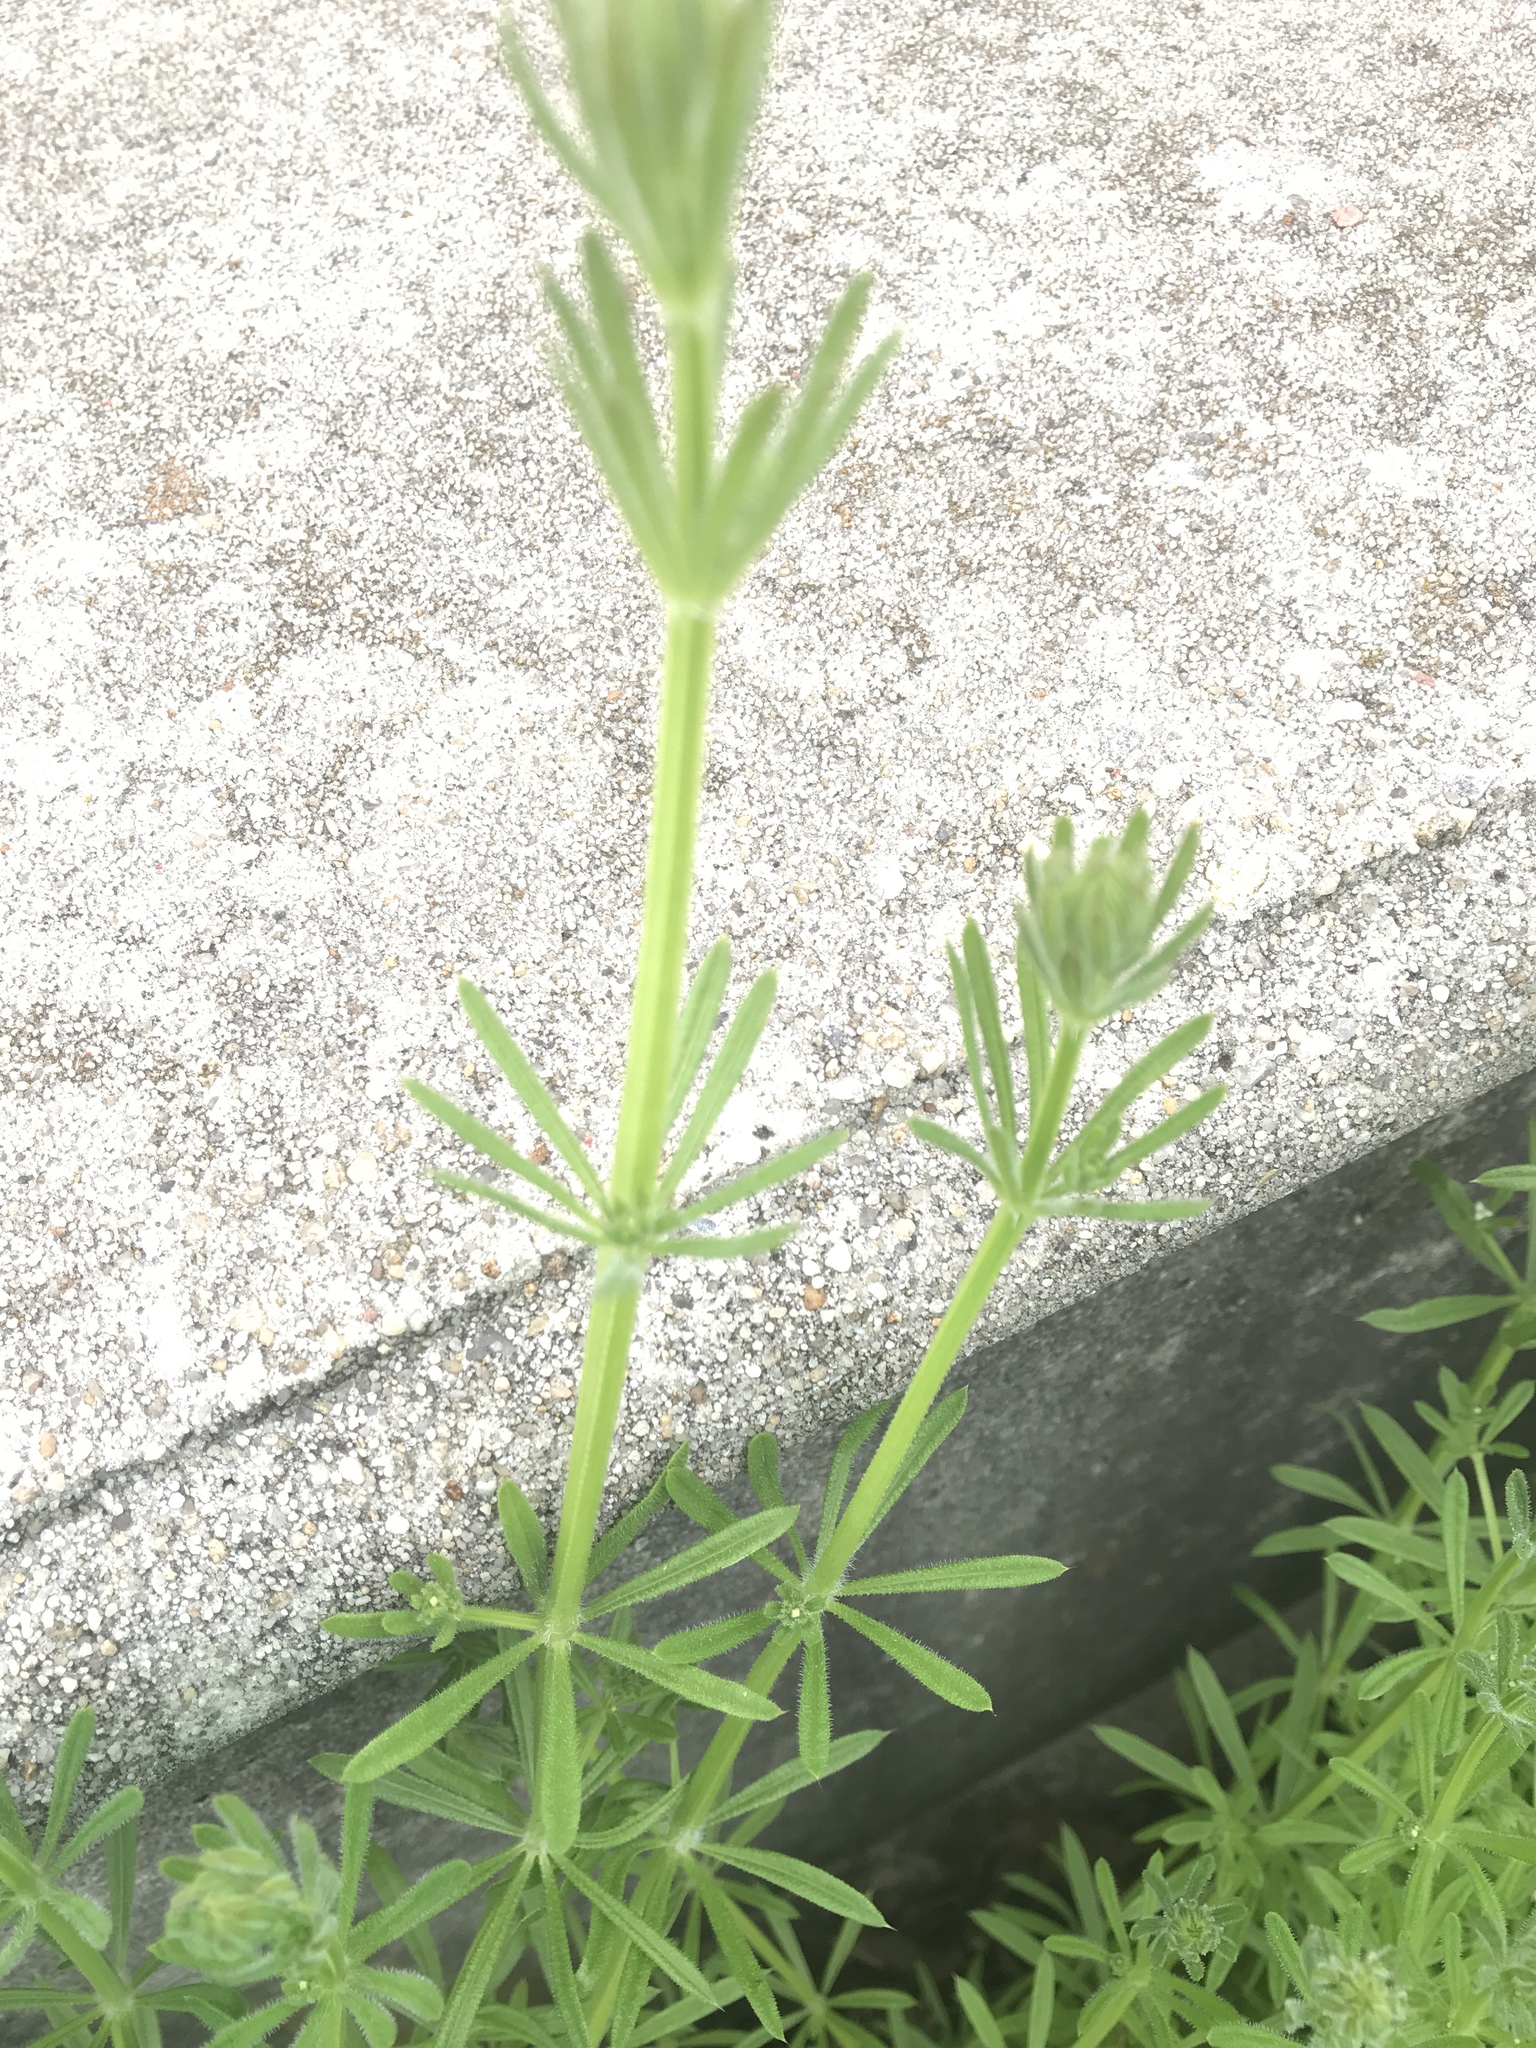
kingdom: Plantae
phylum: Tracheophyta
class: Magnoliopsida
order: Gentianales
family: Rubiaceae
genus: Galium
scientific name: Galium aparine
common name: Cleavers
